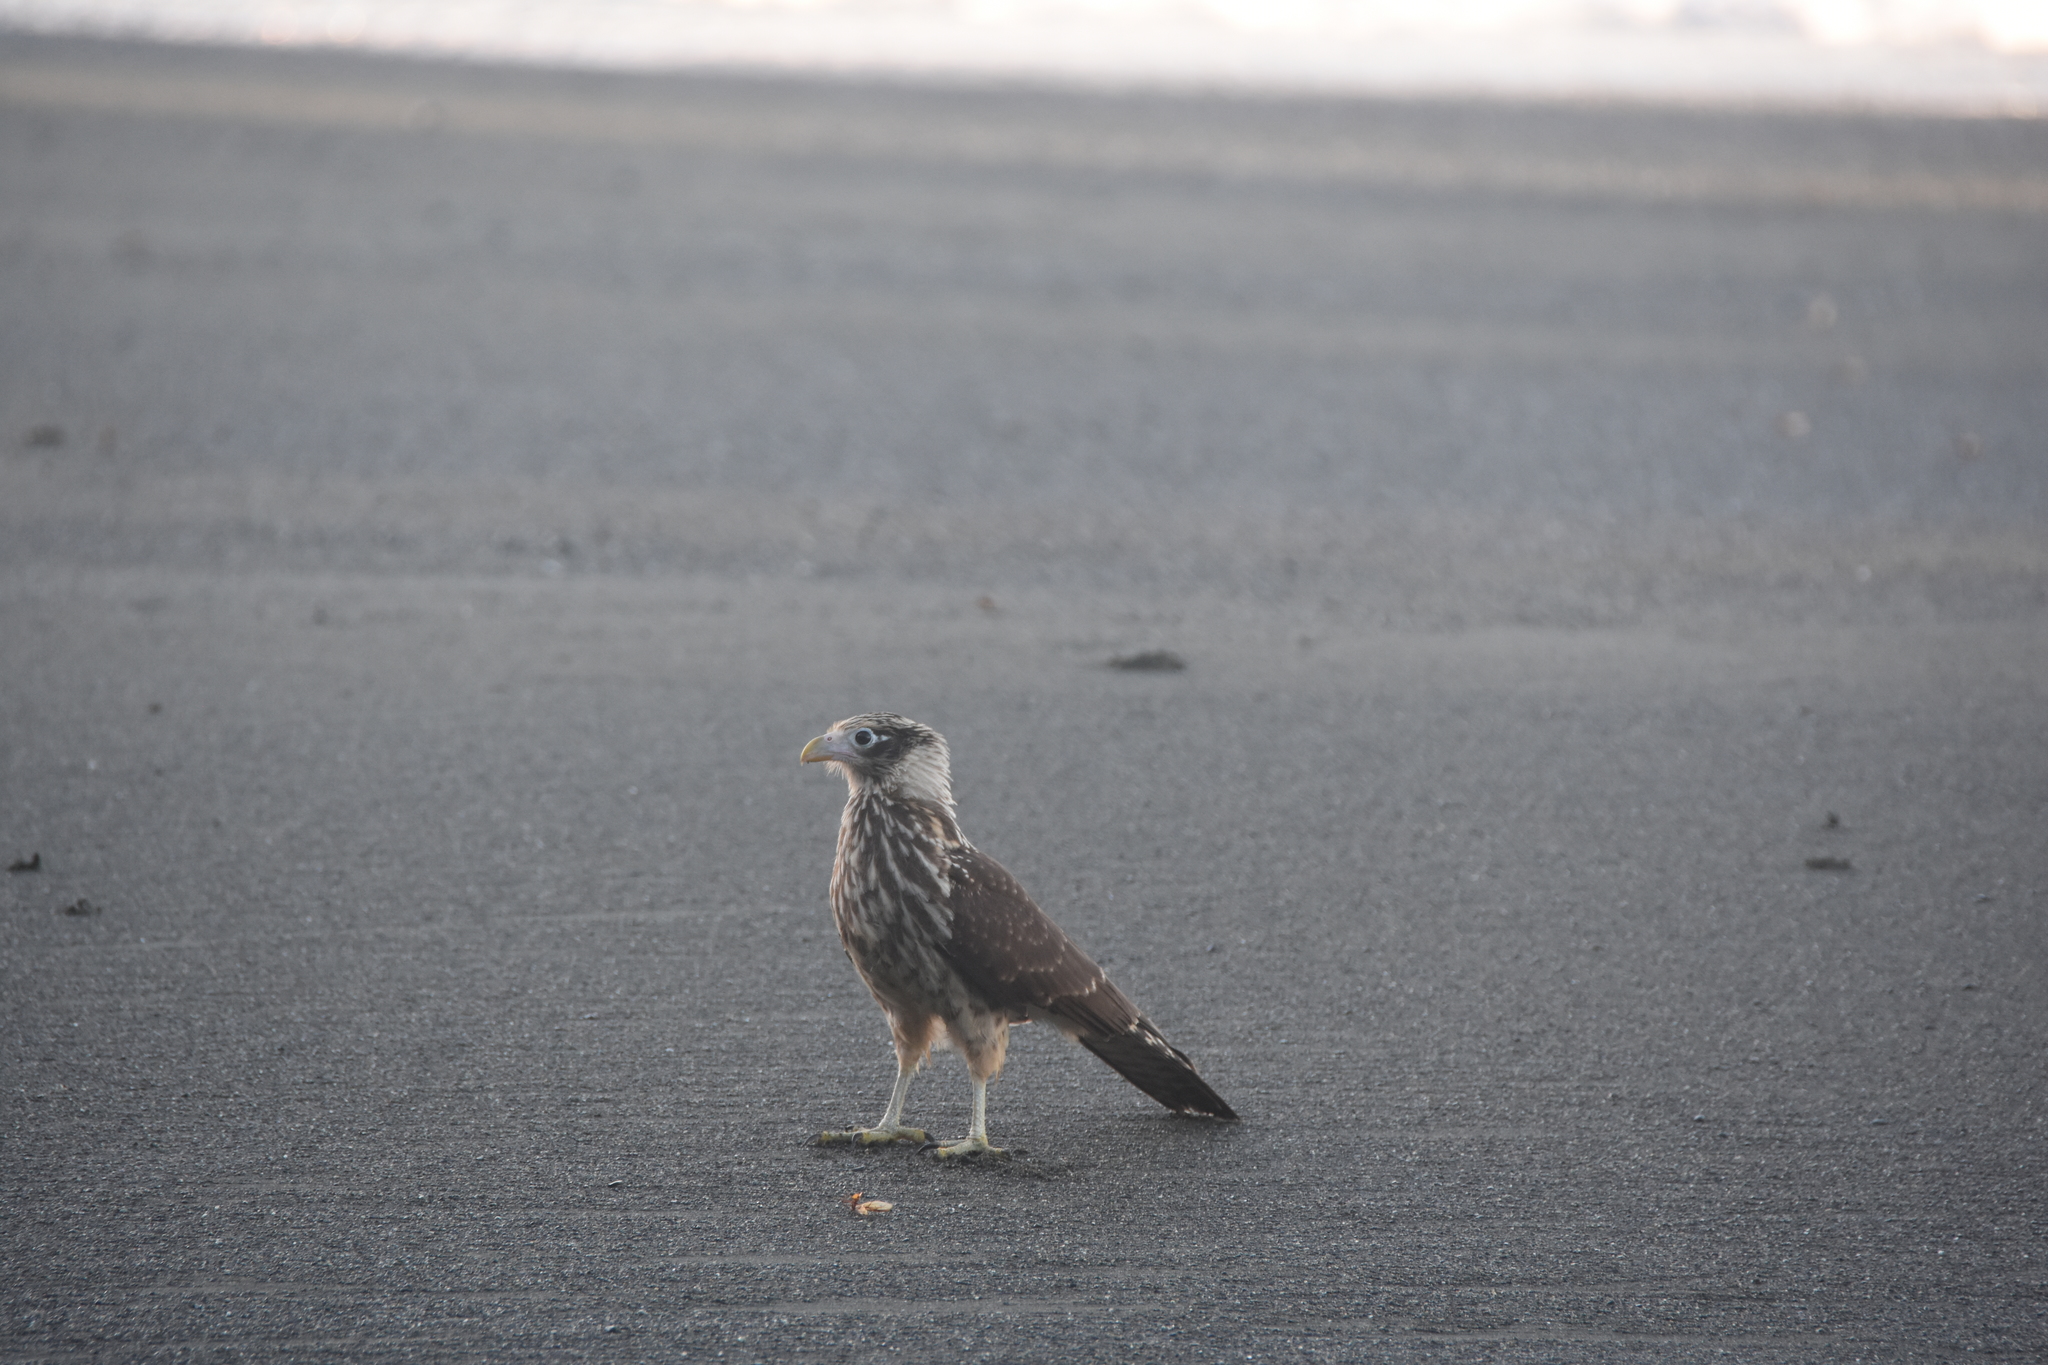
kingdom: Animalia
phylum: Chordata
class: Aves
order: Falconiformes
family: Falconidae
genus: Daptrius
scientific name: Daptrius
